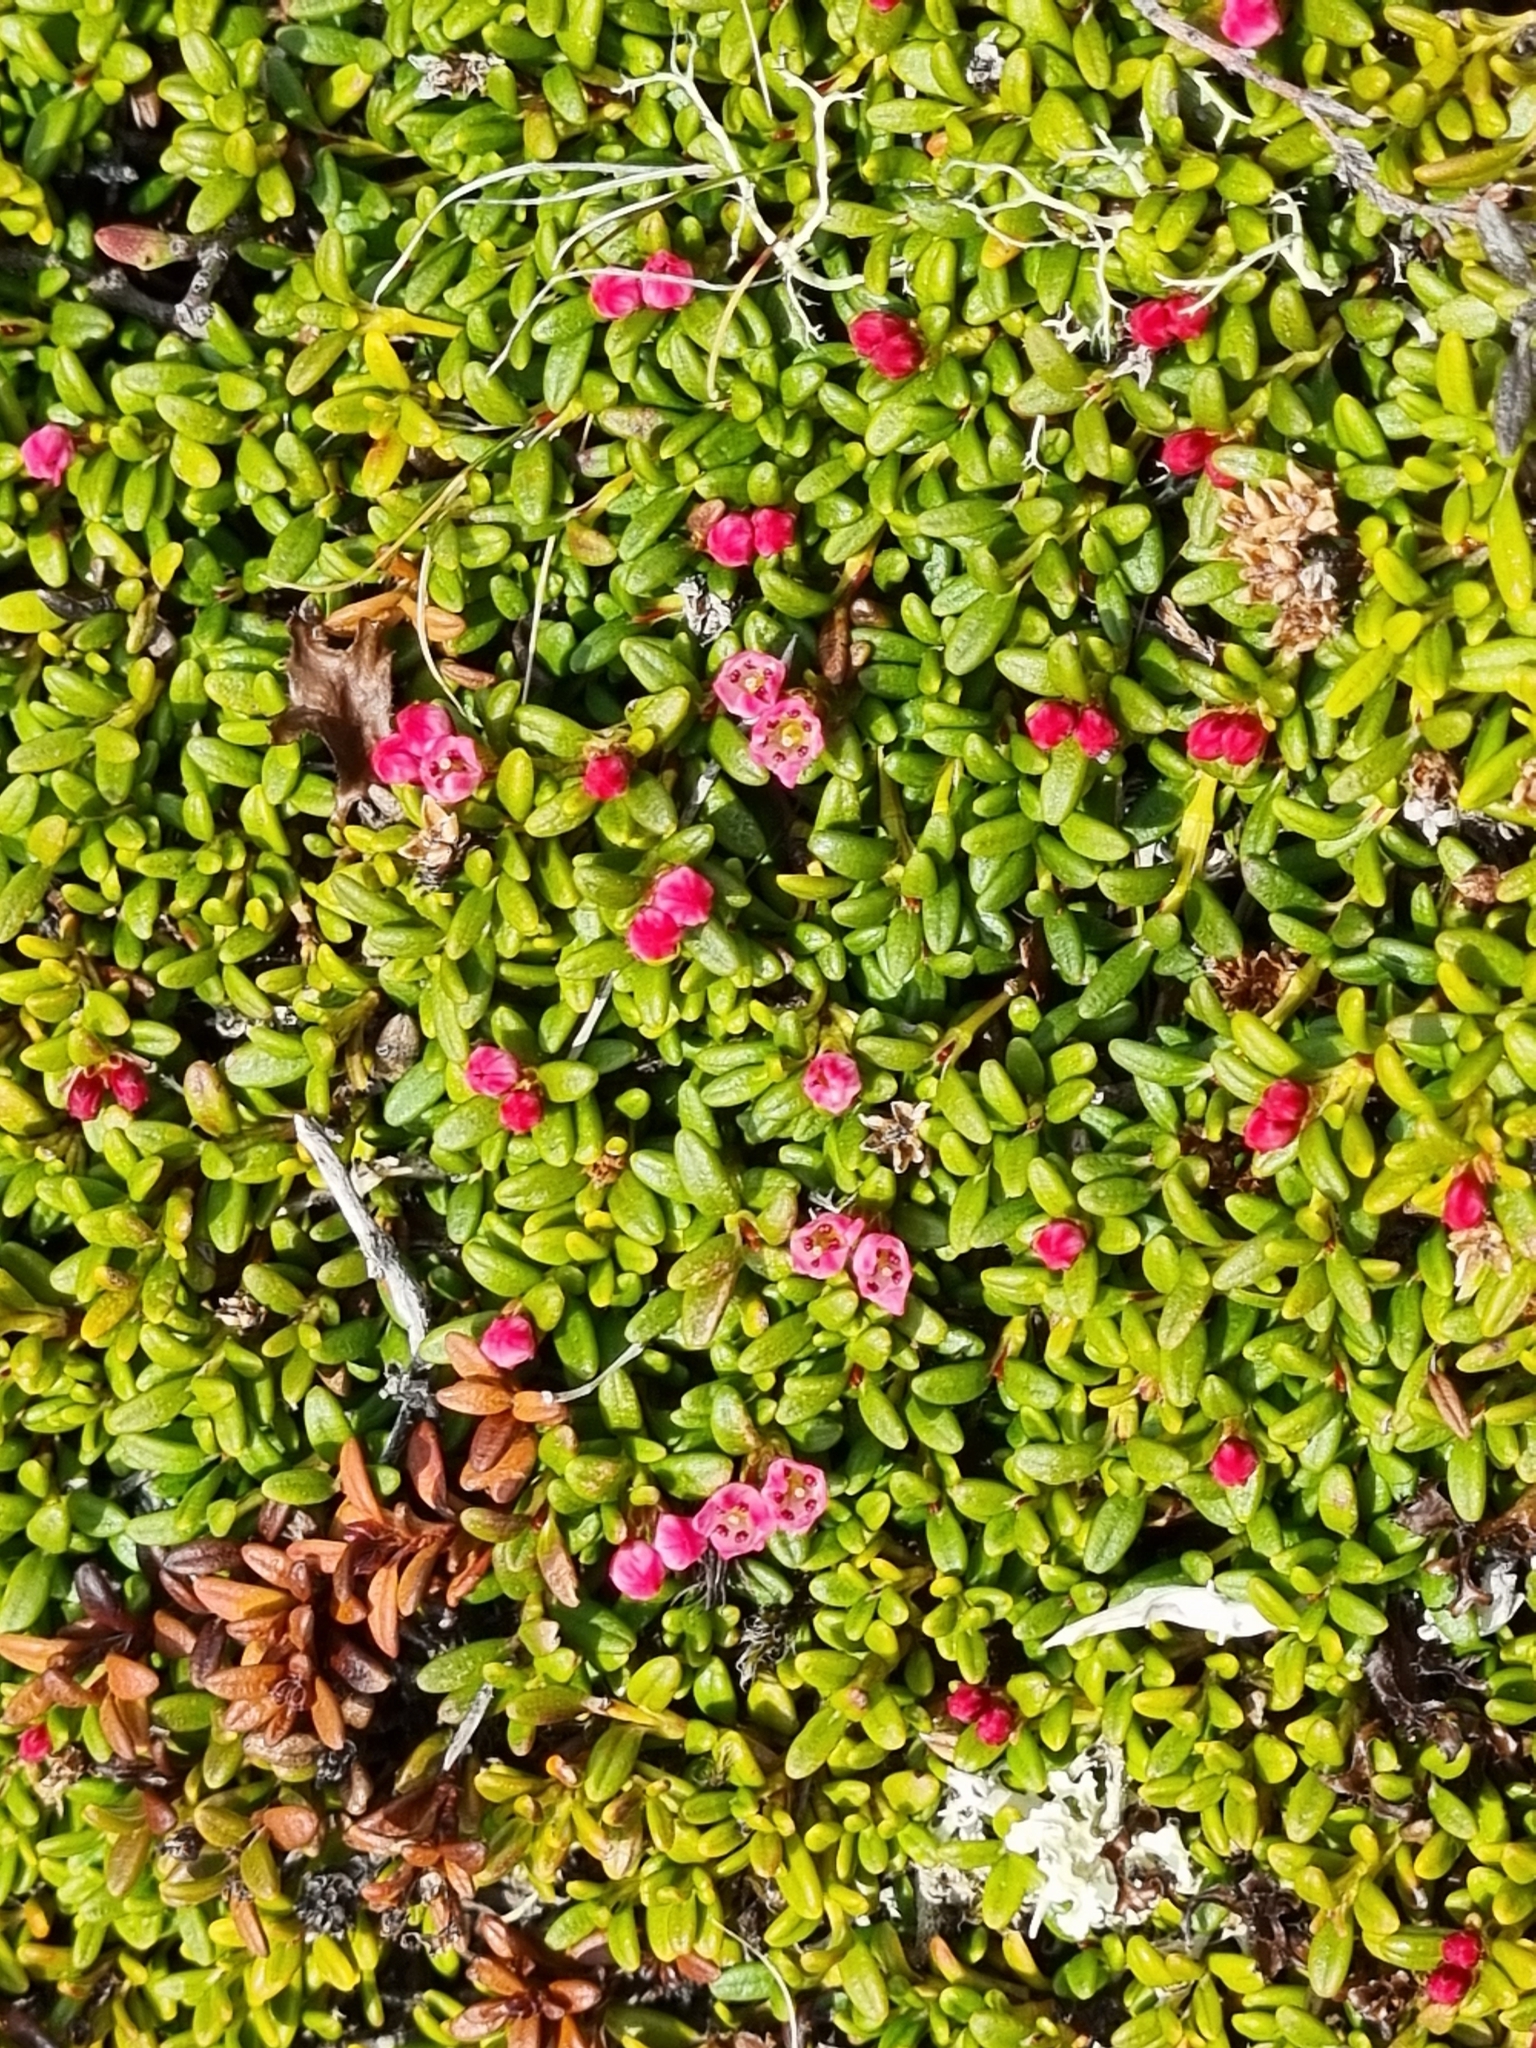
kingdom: Plantae
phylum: Tracheophyta
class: Magnoliopsida
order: Ericales
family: Ericaceae
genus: Kalmia
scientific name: Kalmia procumbens
